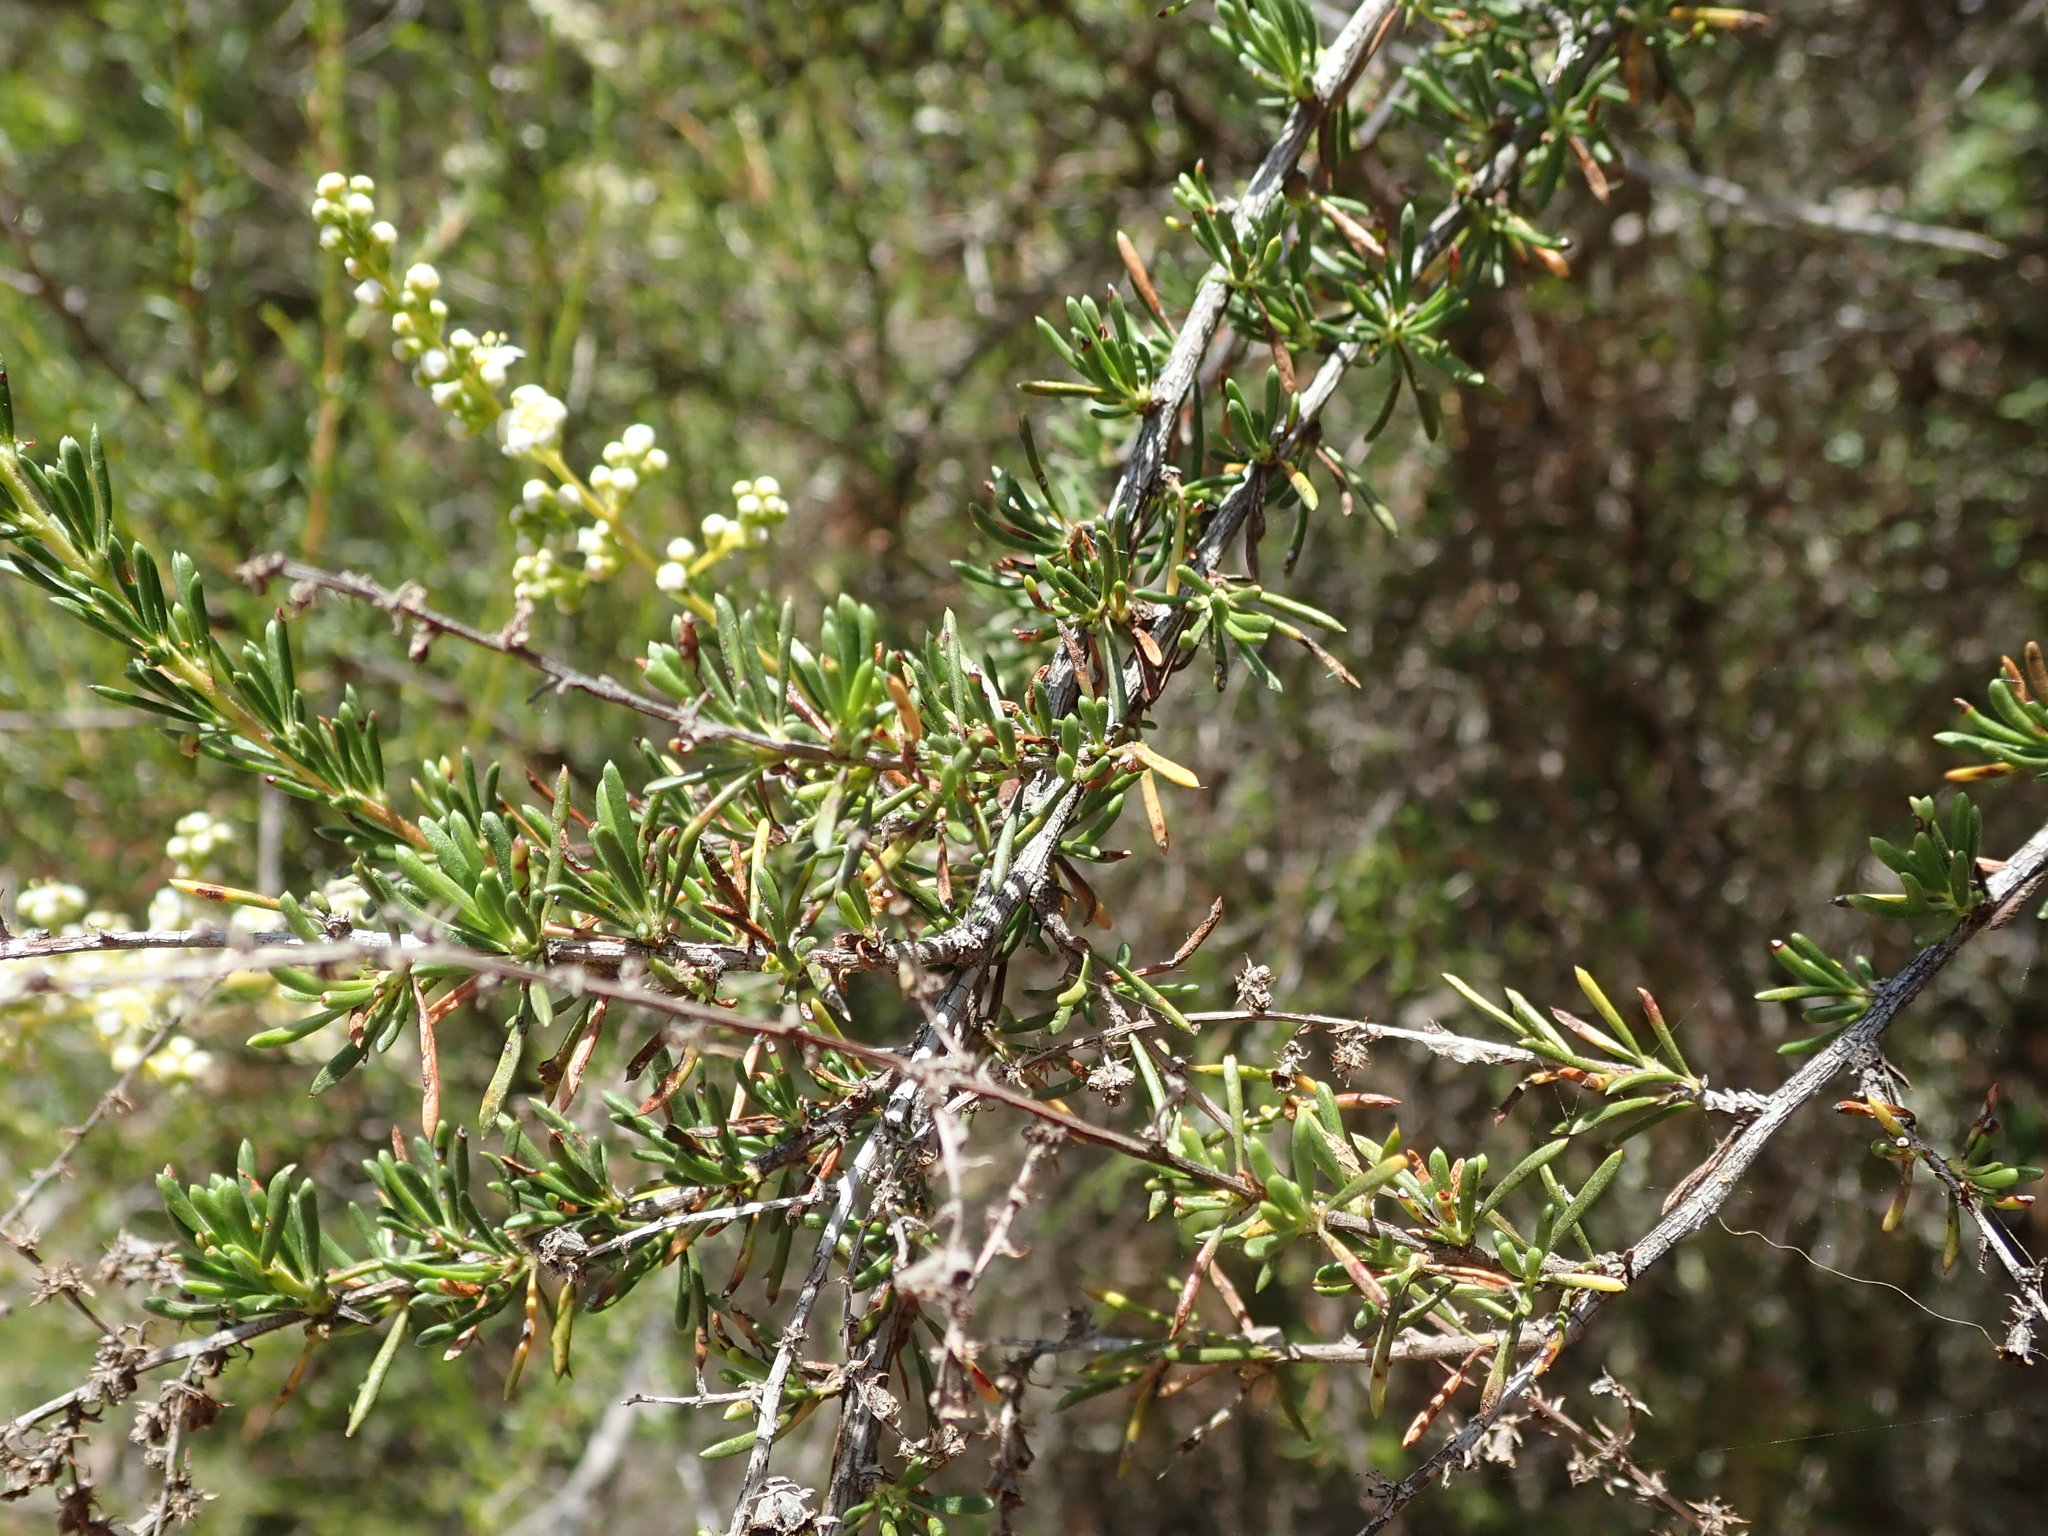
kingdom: Plantae
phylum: Tracheophyta
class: Magnoliopsida
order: Rosales
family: Rosaceae
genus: Adenostoma
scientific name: Adenostoma fasciculatum
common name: Chamise
